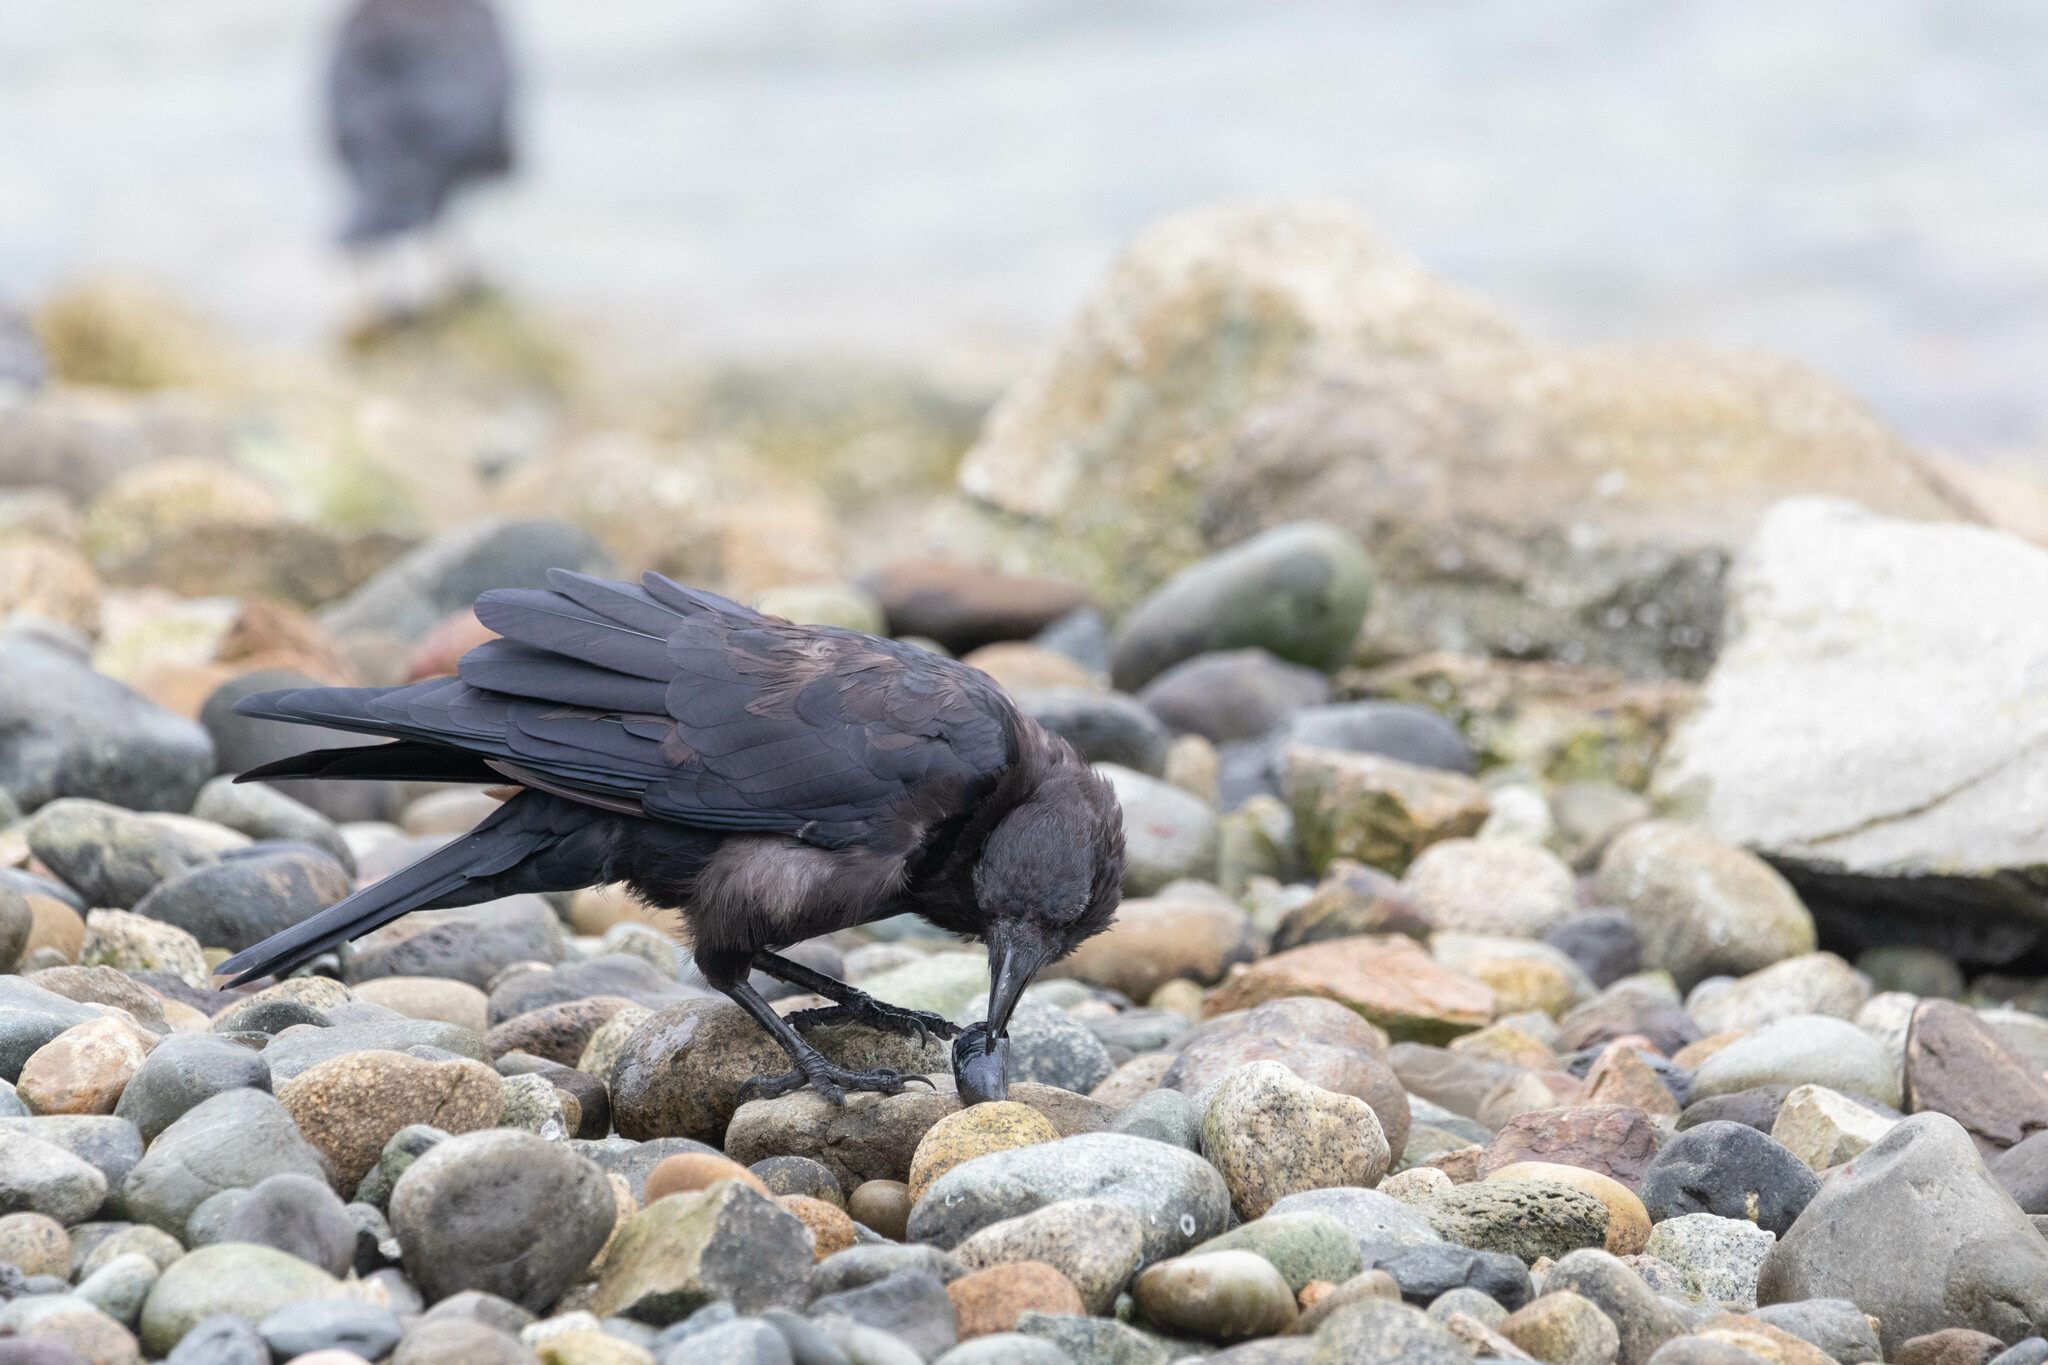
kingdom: Animalia
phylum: Chordata
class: Aves
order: Passeriformes
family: Corvidae
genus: Corvus
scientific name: Corvus brachyrhynchos
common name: American crow
